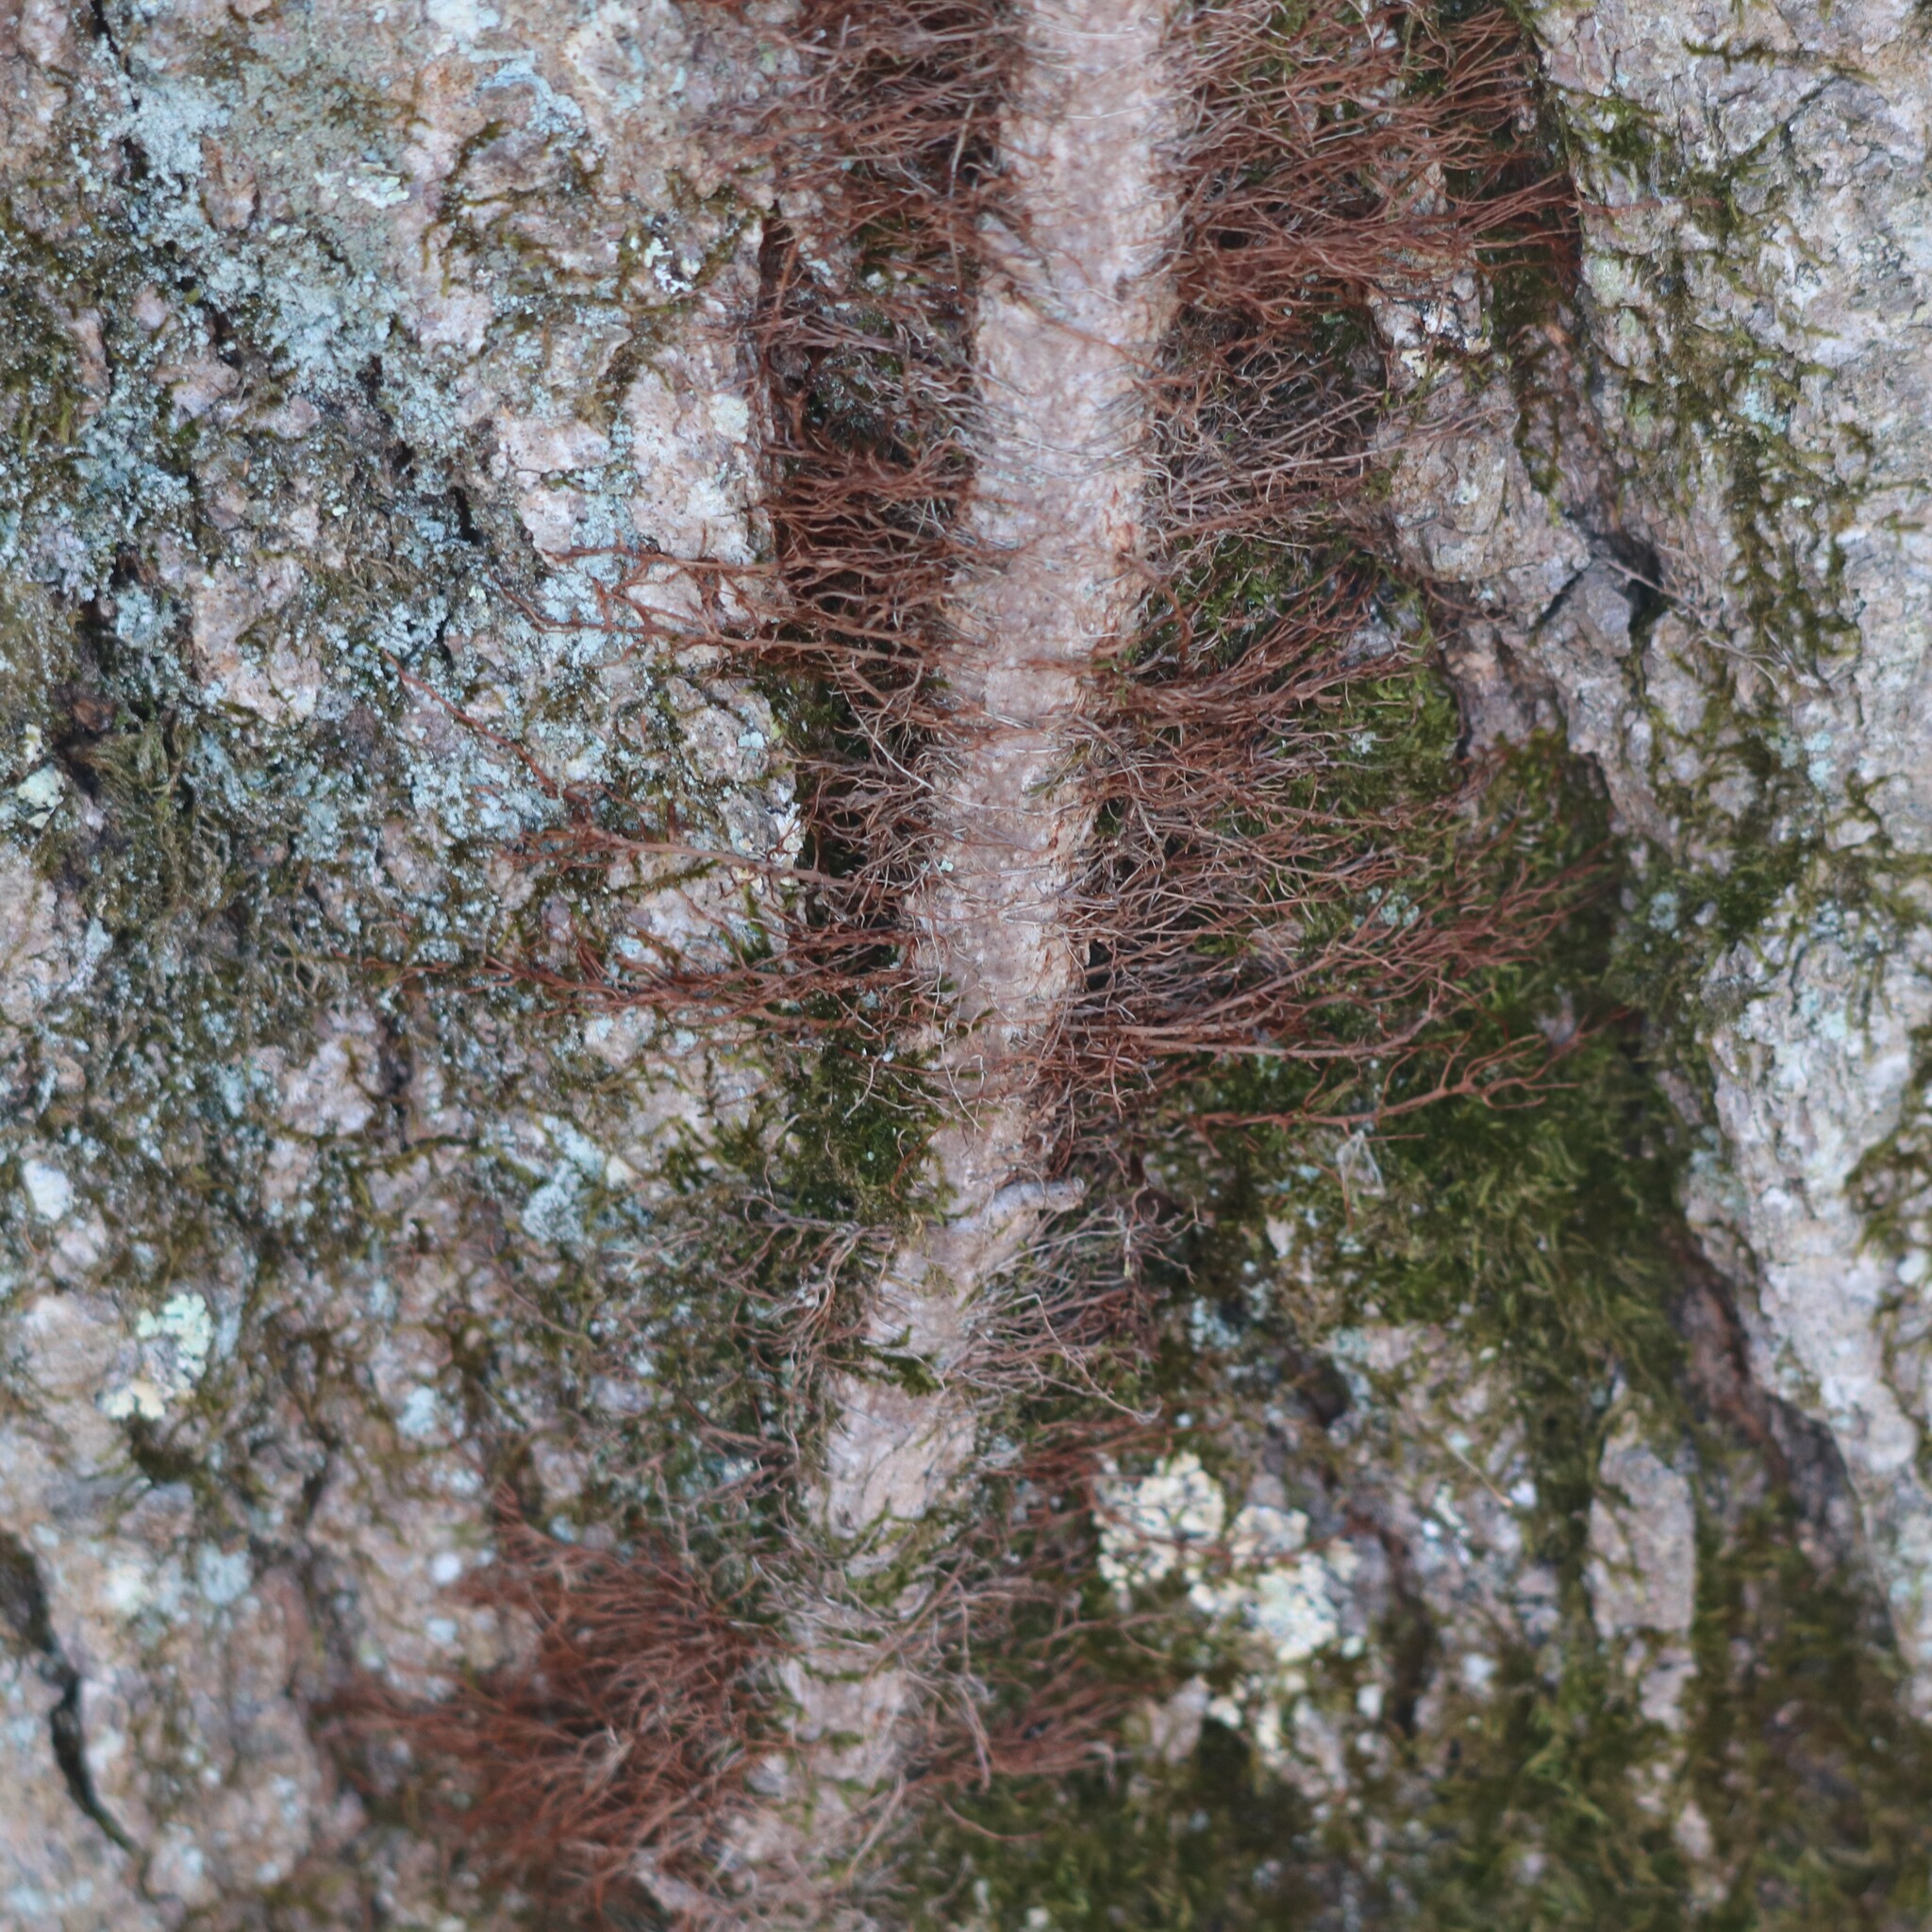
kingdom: Plantae
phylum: Tracheophyta
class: Magnoliopsida
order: Sapindales
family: Anacardiaceae
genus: Toxicodendron
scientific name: Toxicodendron radicans
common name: Poison ivy
